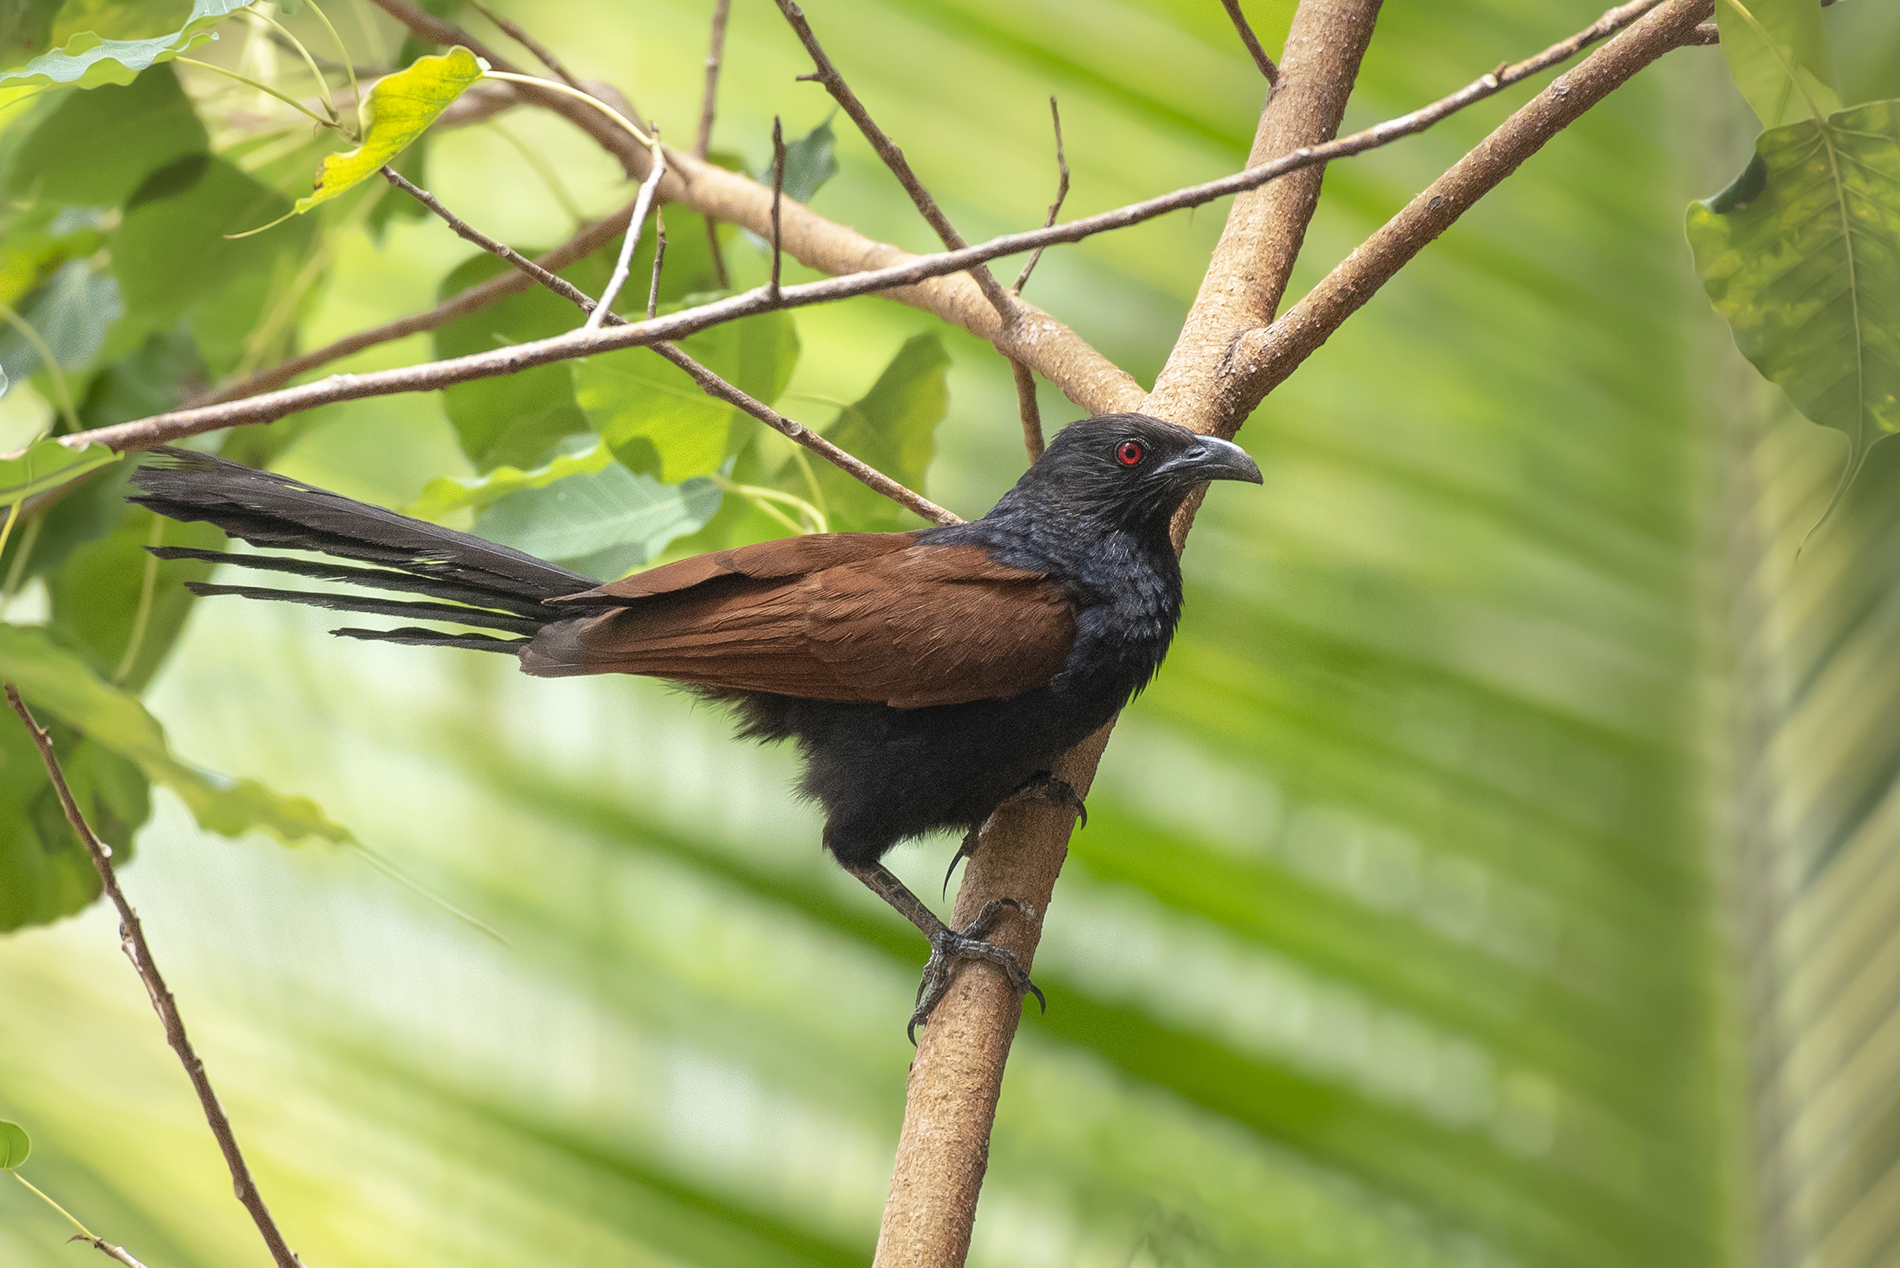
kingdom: Animalia
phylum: Chordata
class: Aves
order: Cuculiformes
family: Cuculidae
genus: Centropus
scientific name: Centropus sinensis
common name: Greater coucal
